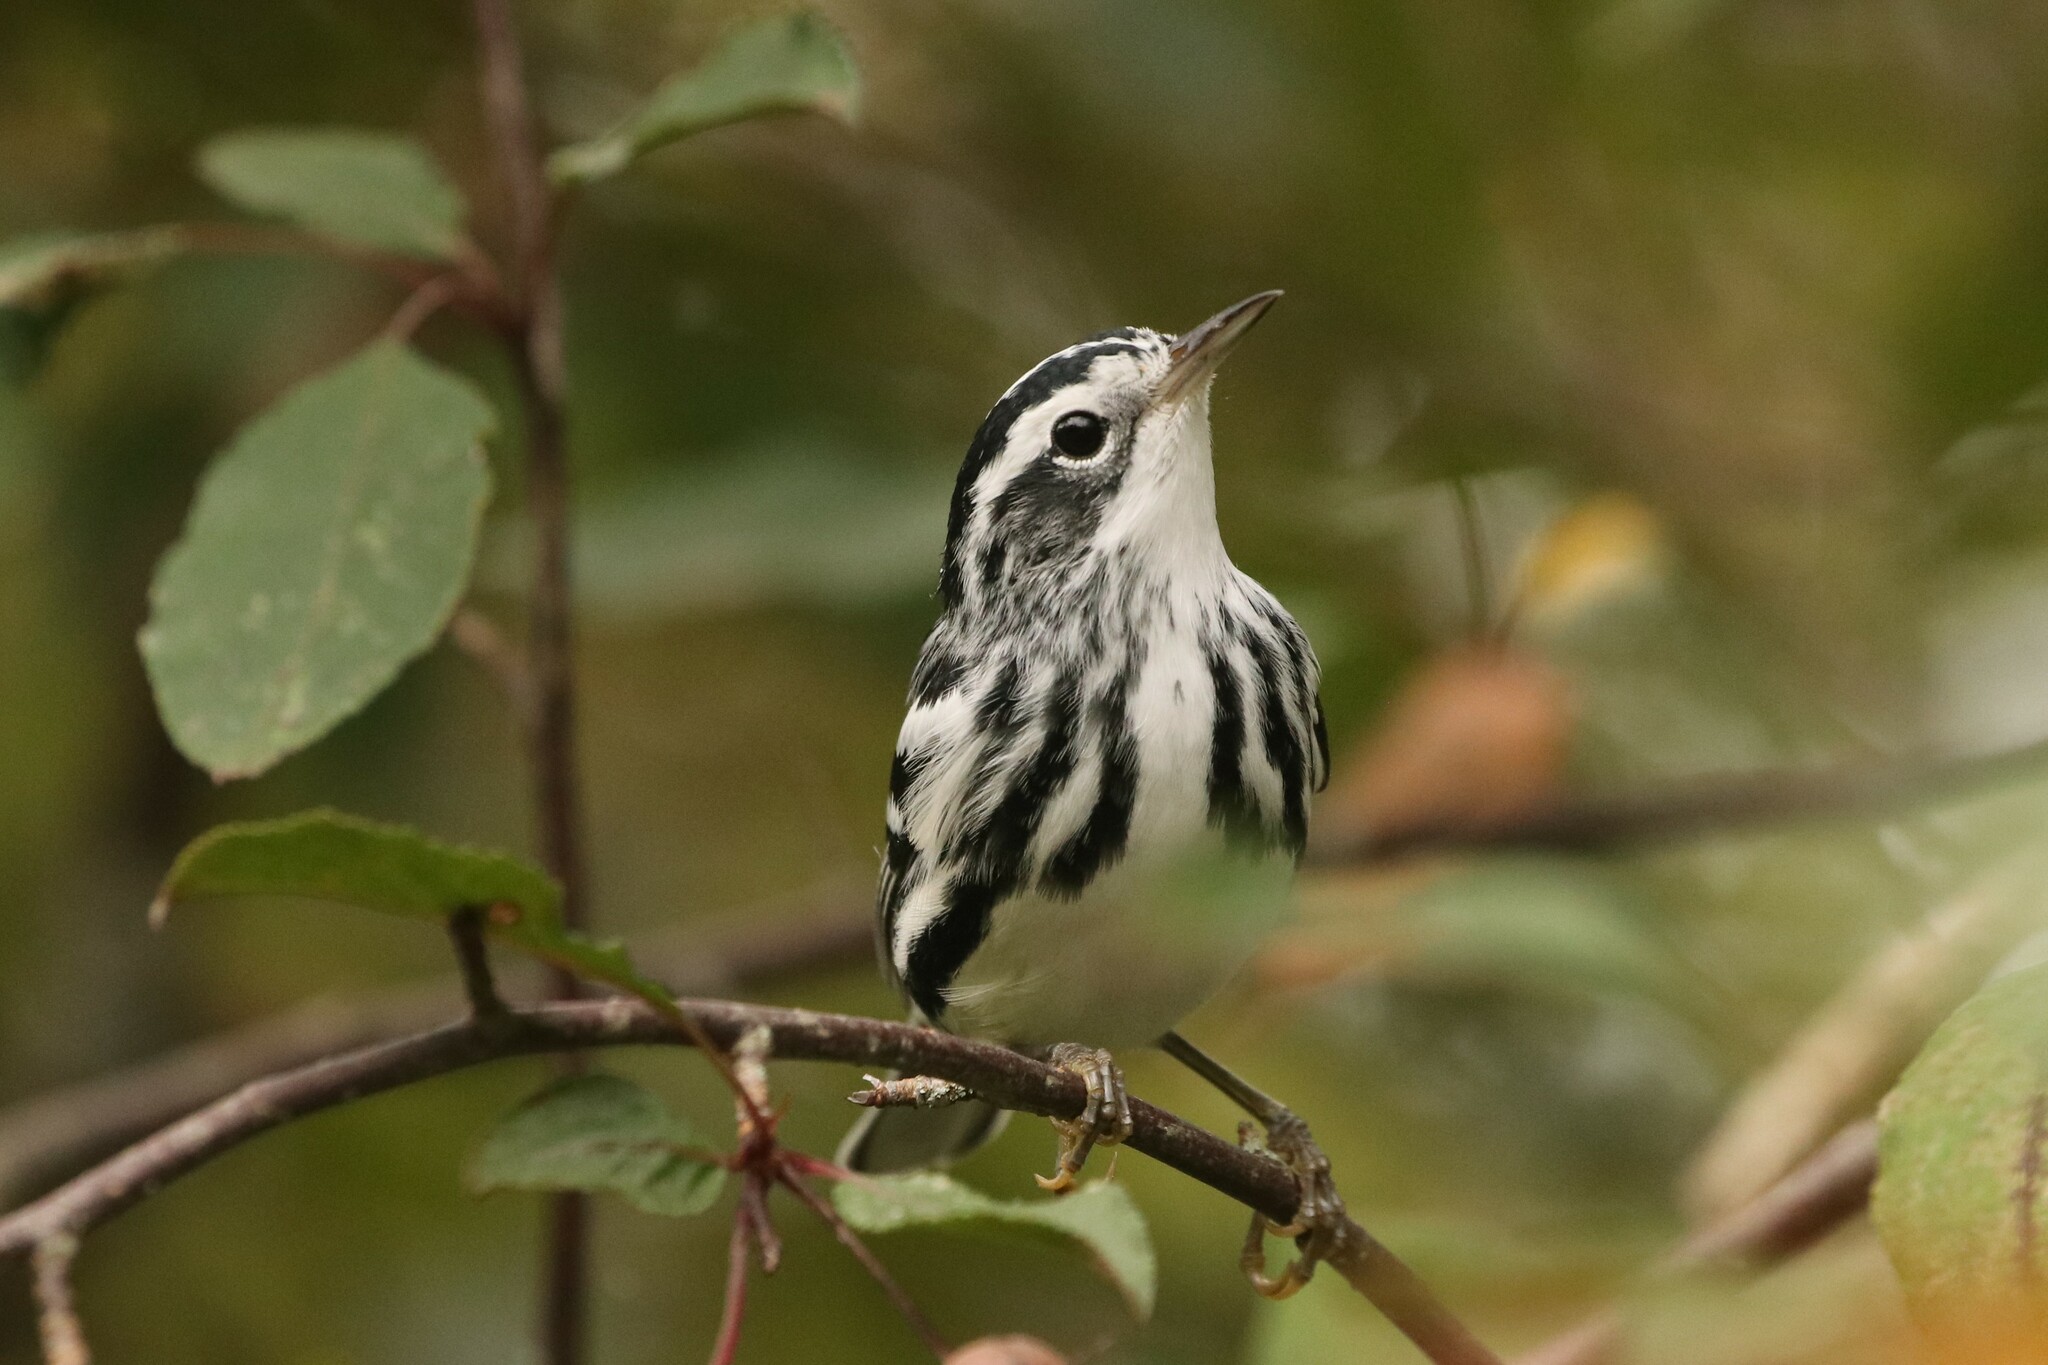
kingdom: Animalia
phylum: Chordata
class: Aves
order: Passeriformes
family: Parulidae
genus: Mniotilta
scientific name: Mniotilta varia
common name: Black-and-white warbler
